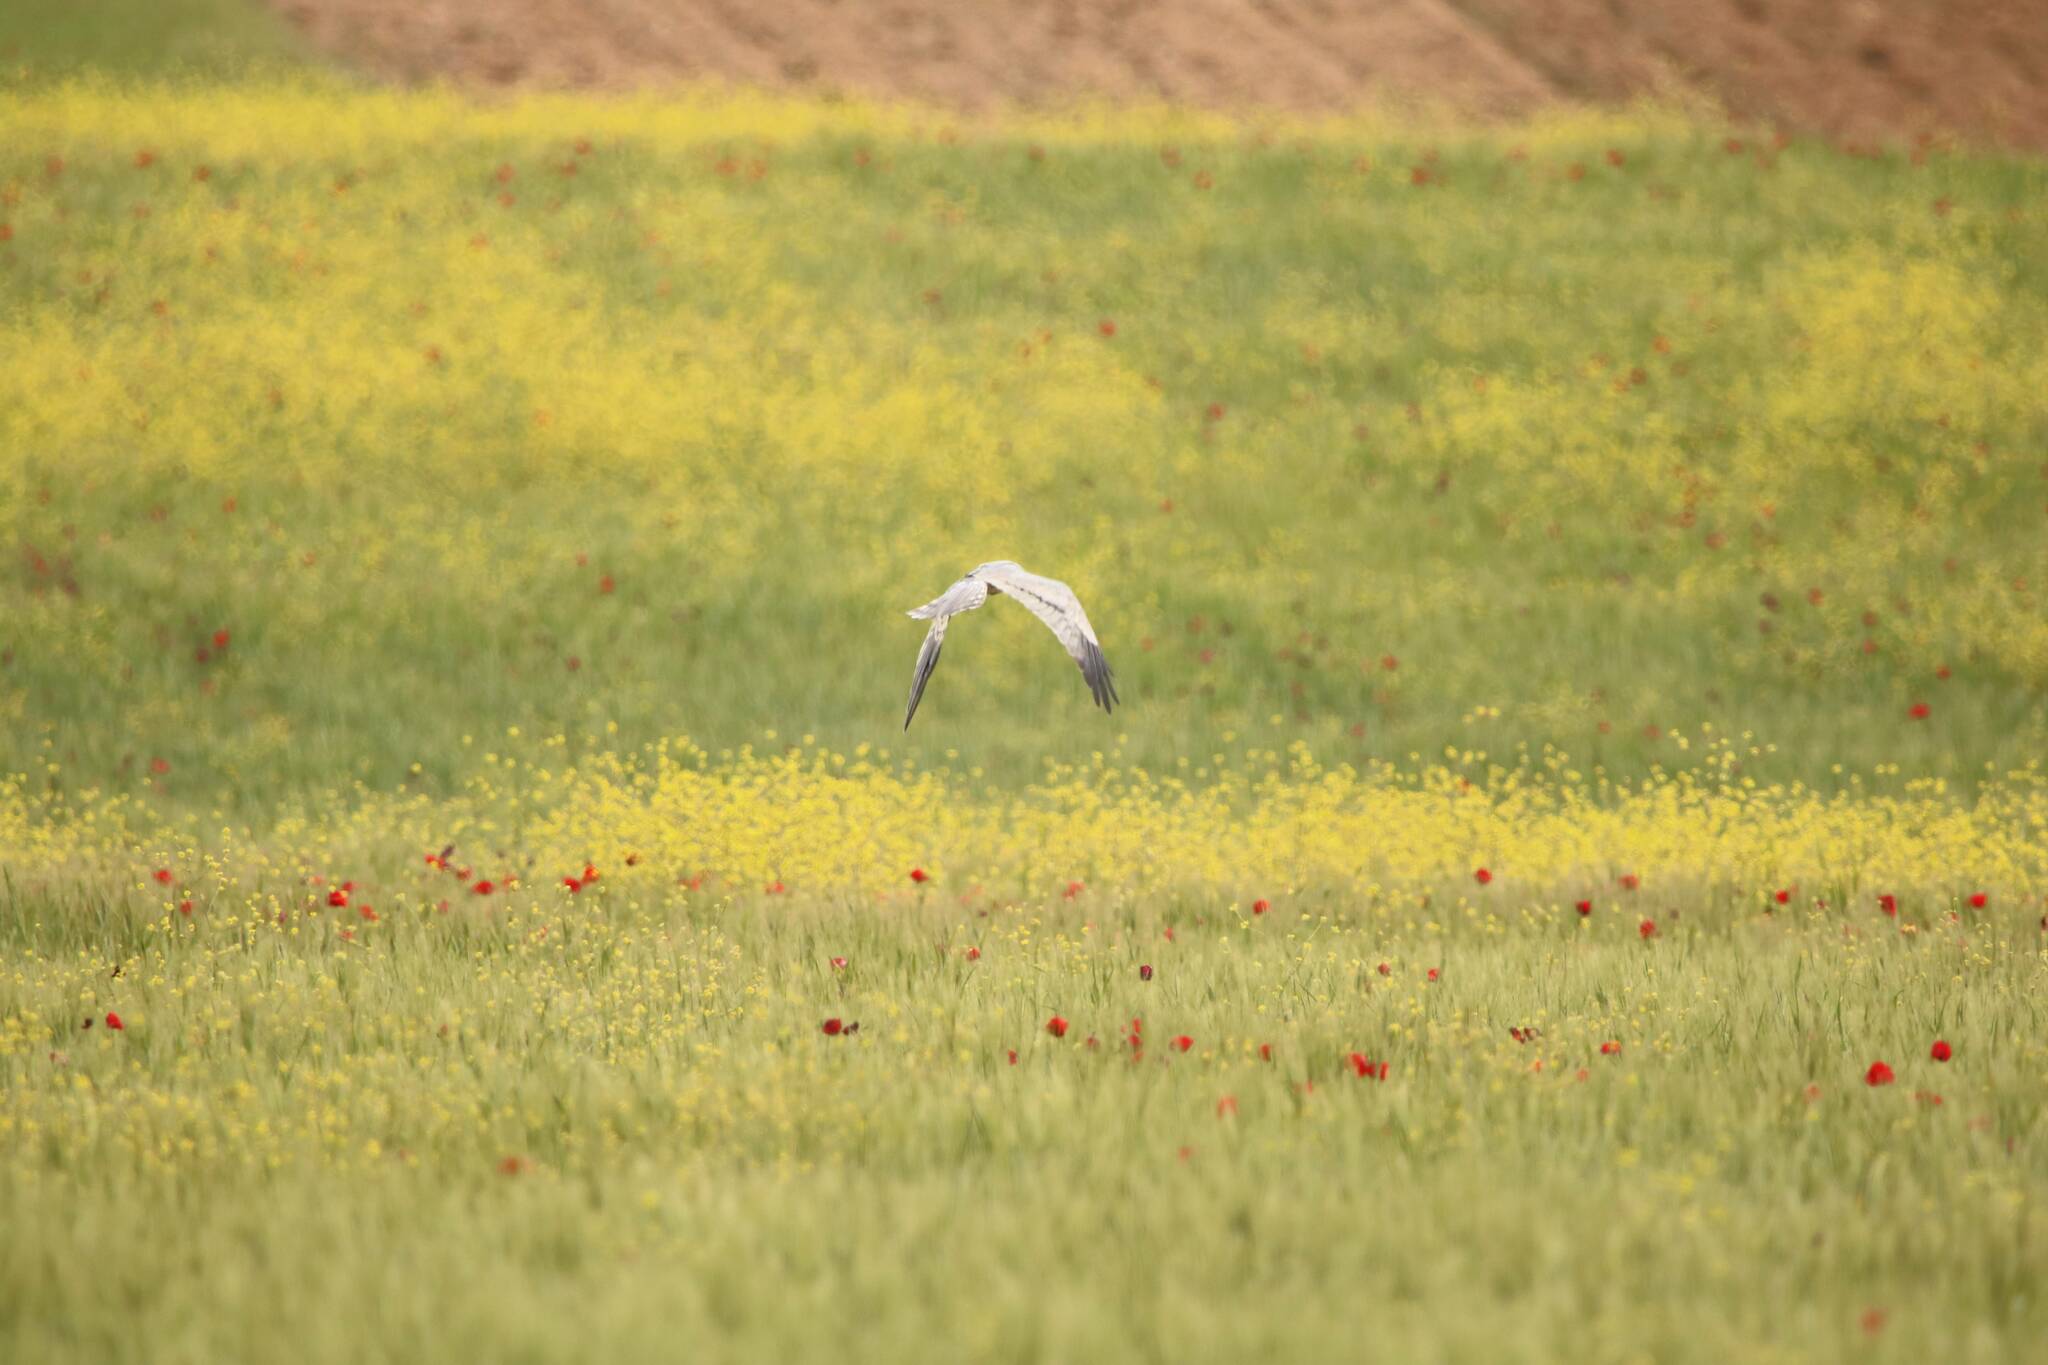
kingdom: Animalia
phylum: Chordata
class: Aves
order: Accipitriformes
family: Accipitridae
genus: Circus
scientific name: Circus pygargus
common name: Montagu's harrier
